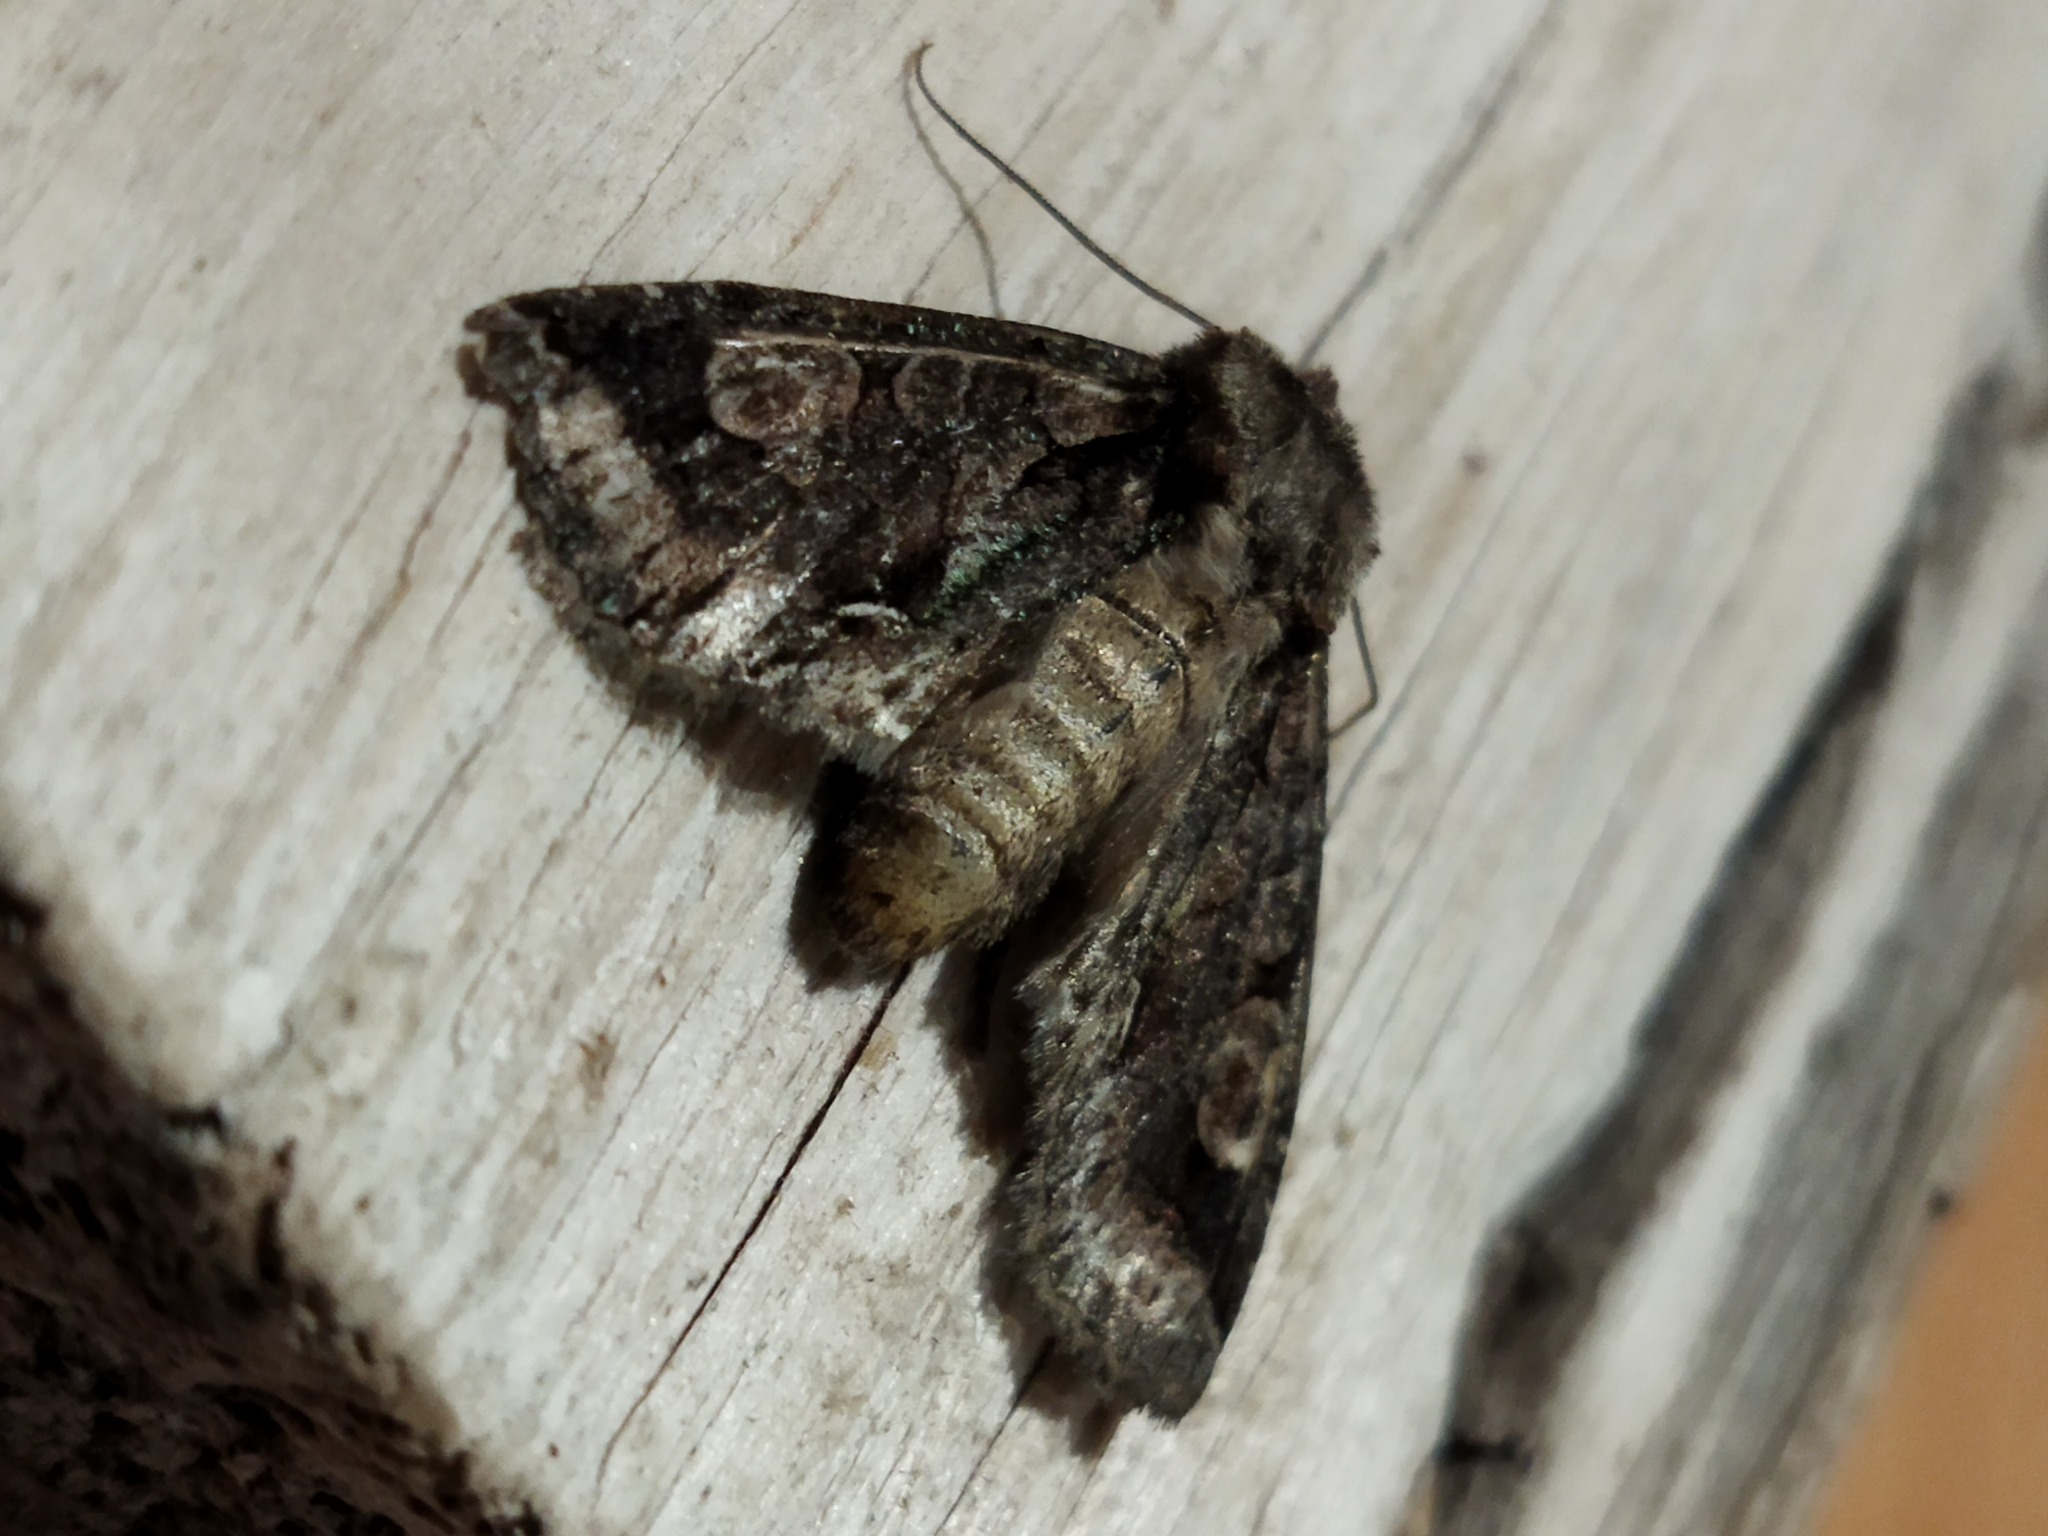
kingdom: Animalia
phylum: Arthropoda
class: Insecta
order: Lepidoptera
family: Noctuidae
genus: Allophyes
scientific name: Allophyes oxyacanthae
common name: Green-brindled crescent
